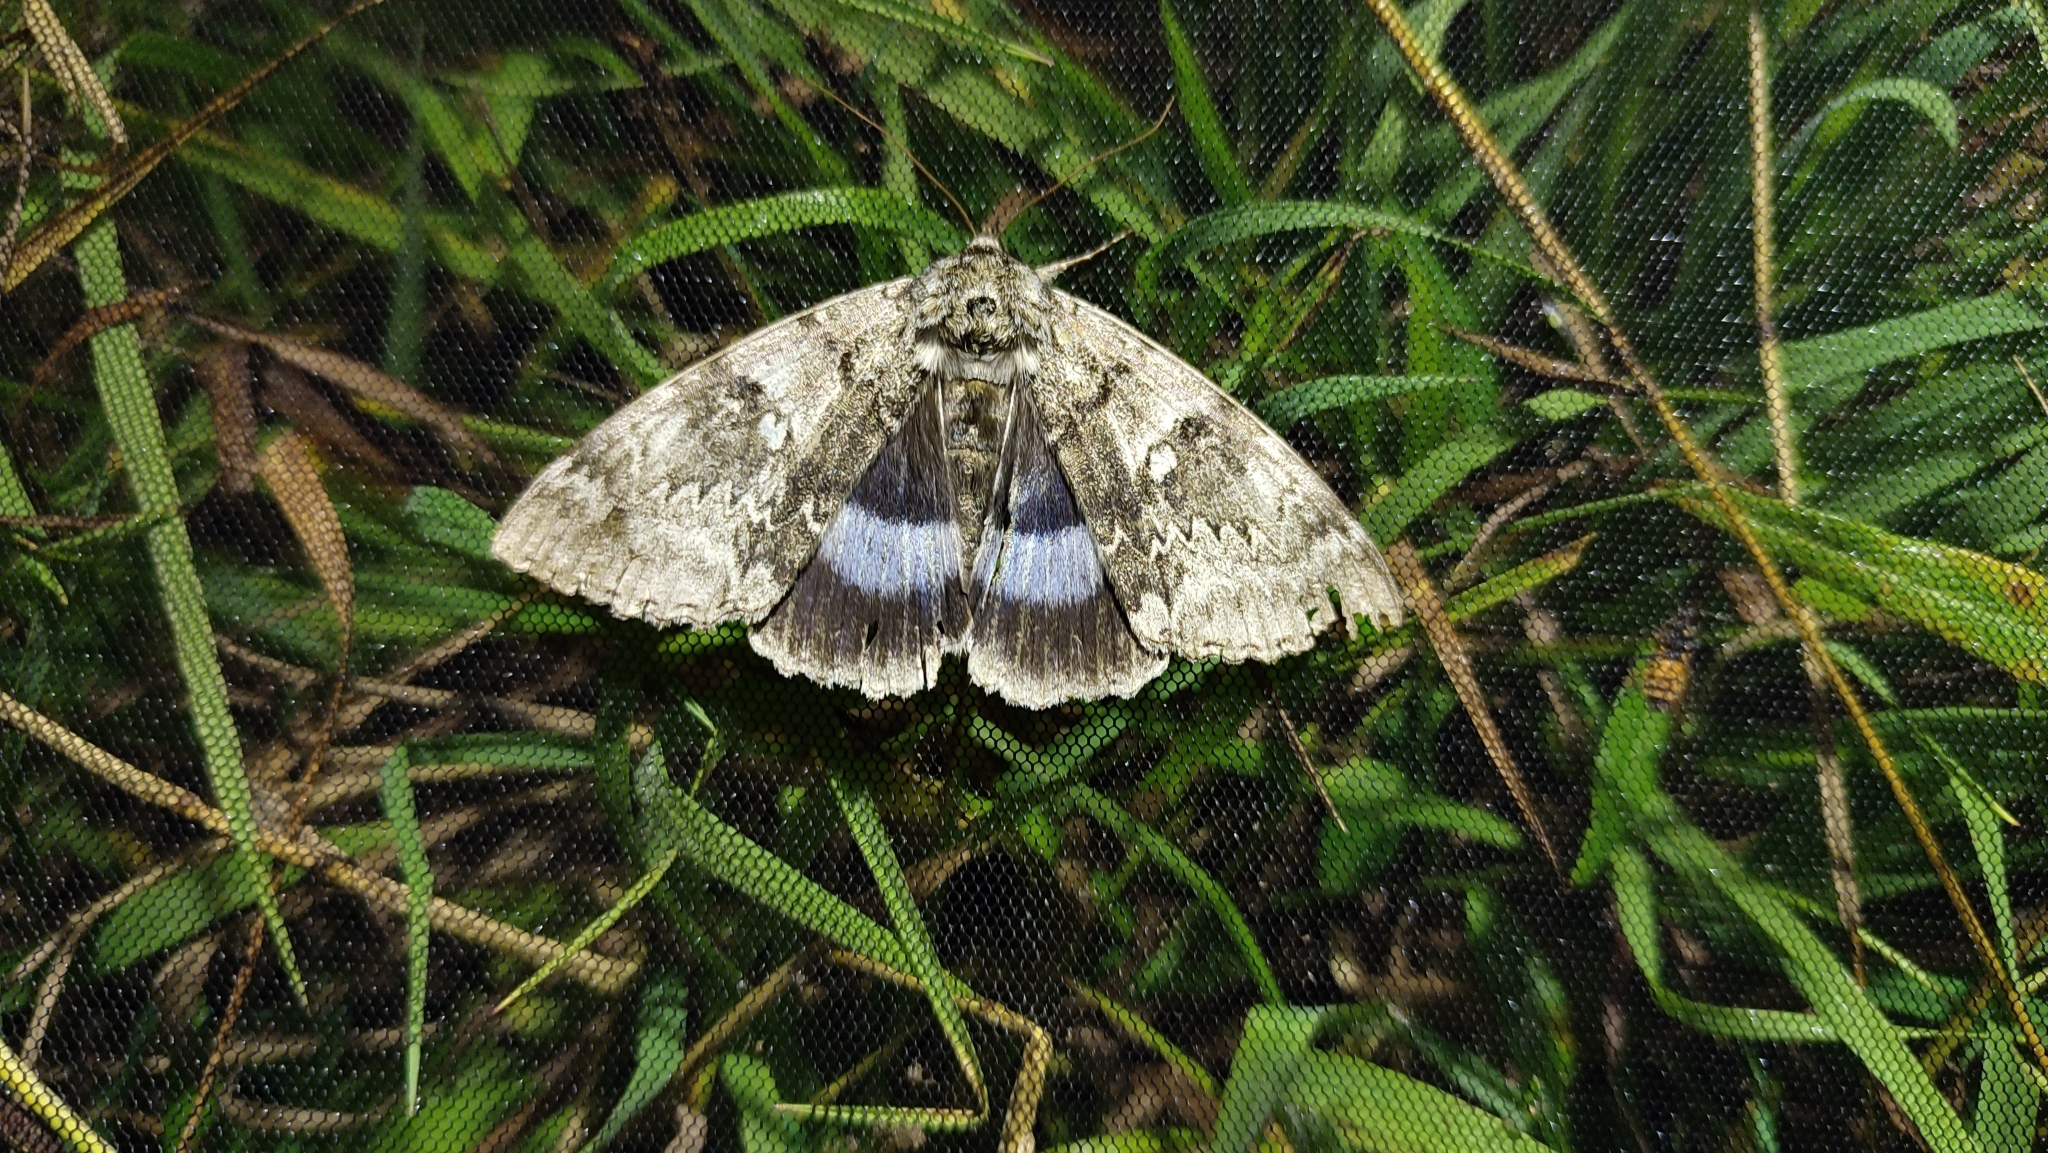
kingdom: Animalia
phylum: Arthropoda
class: Insecta
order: Lepidoptera
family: Erebidae
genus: Catocala
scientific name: Catocala fraxini
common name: Clifden nonpareil
